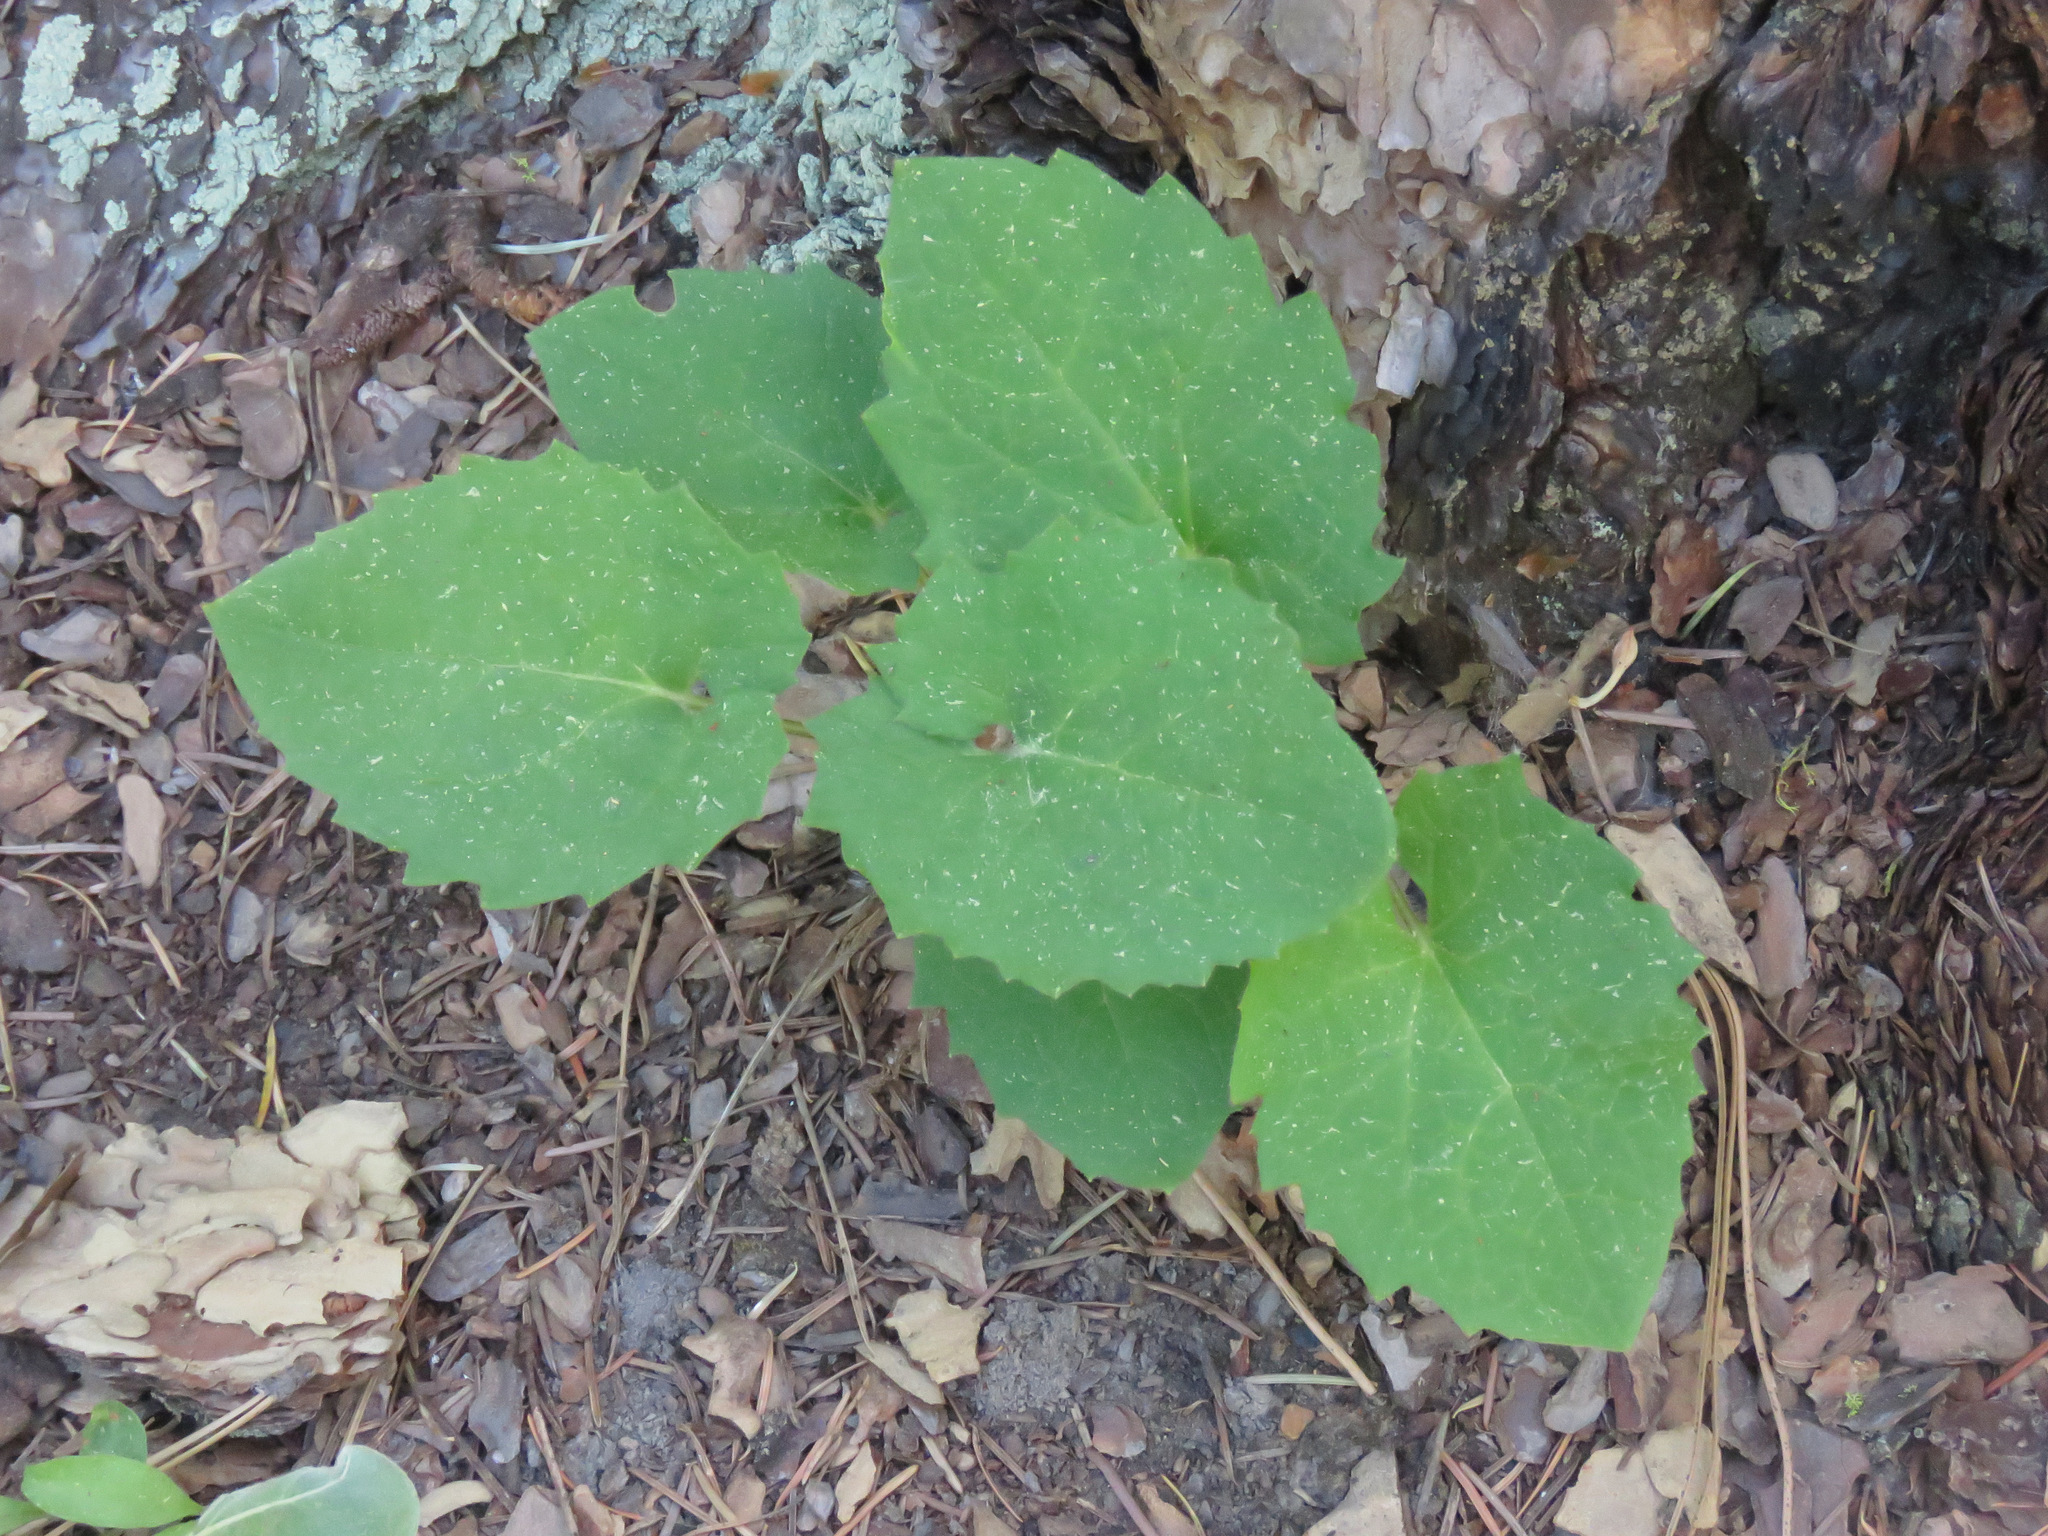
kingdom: Plantae
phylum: Tracheophyta
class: Magnoliopsida
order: Asterales
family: Asteraceae
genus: Arnica
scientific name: Arnica cordifolia
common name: Heart-leaf arnica
